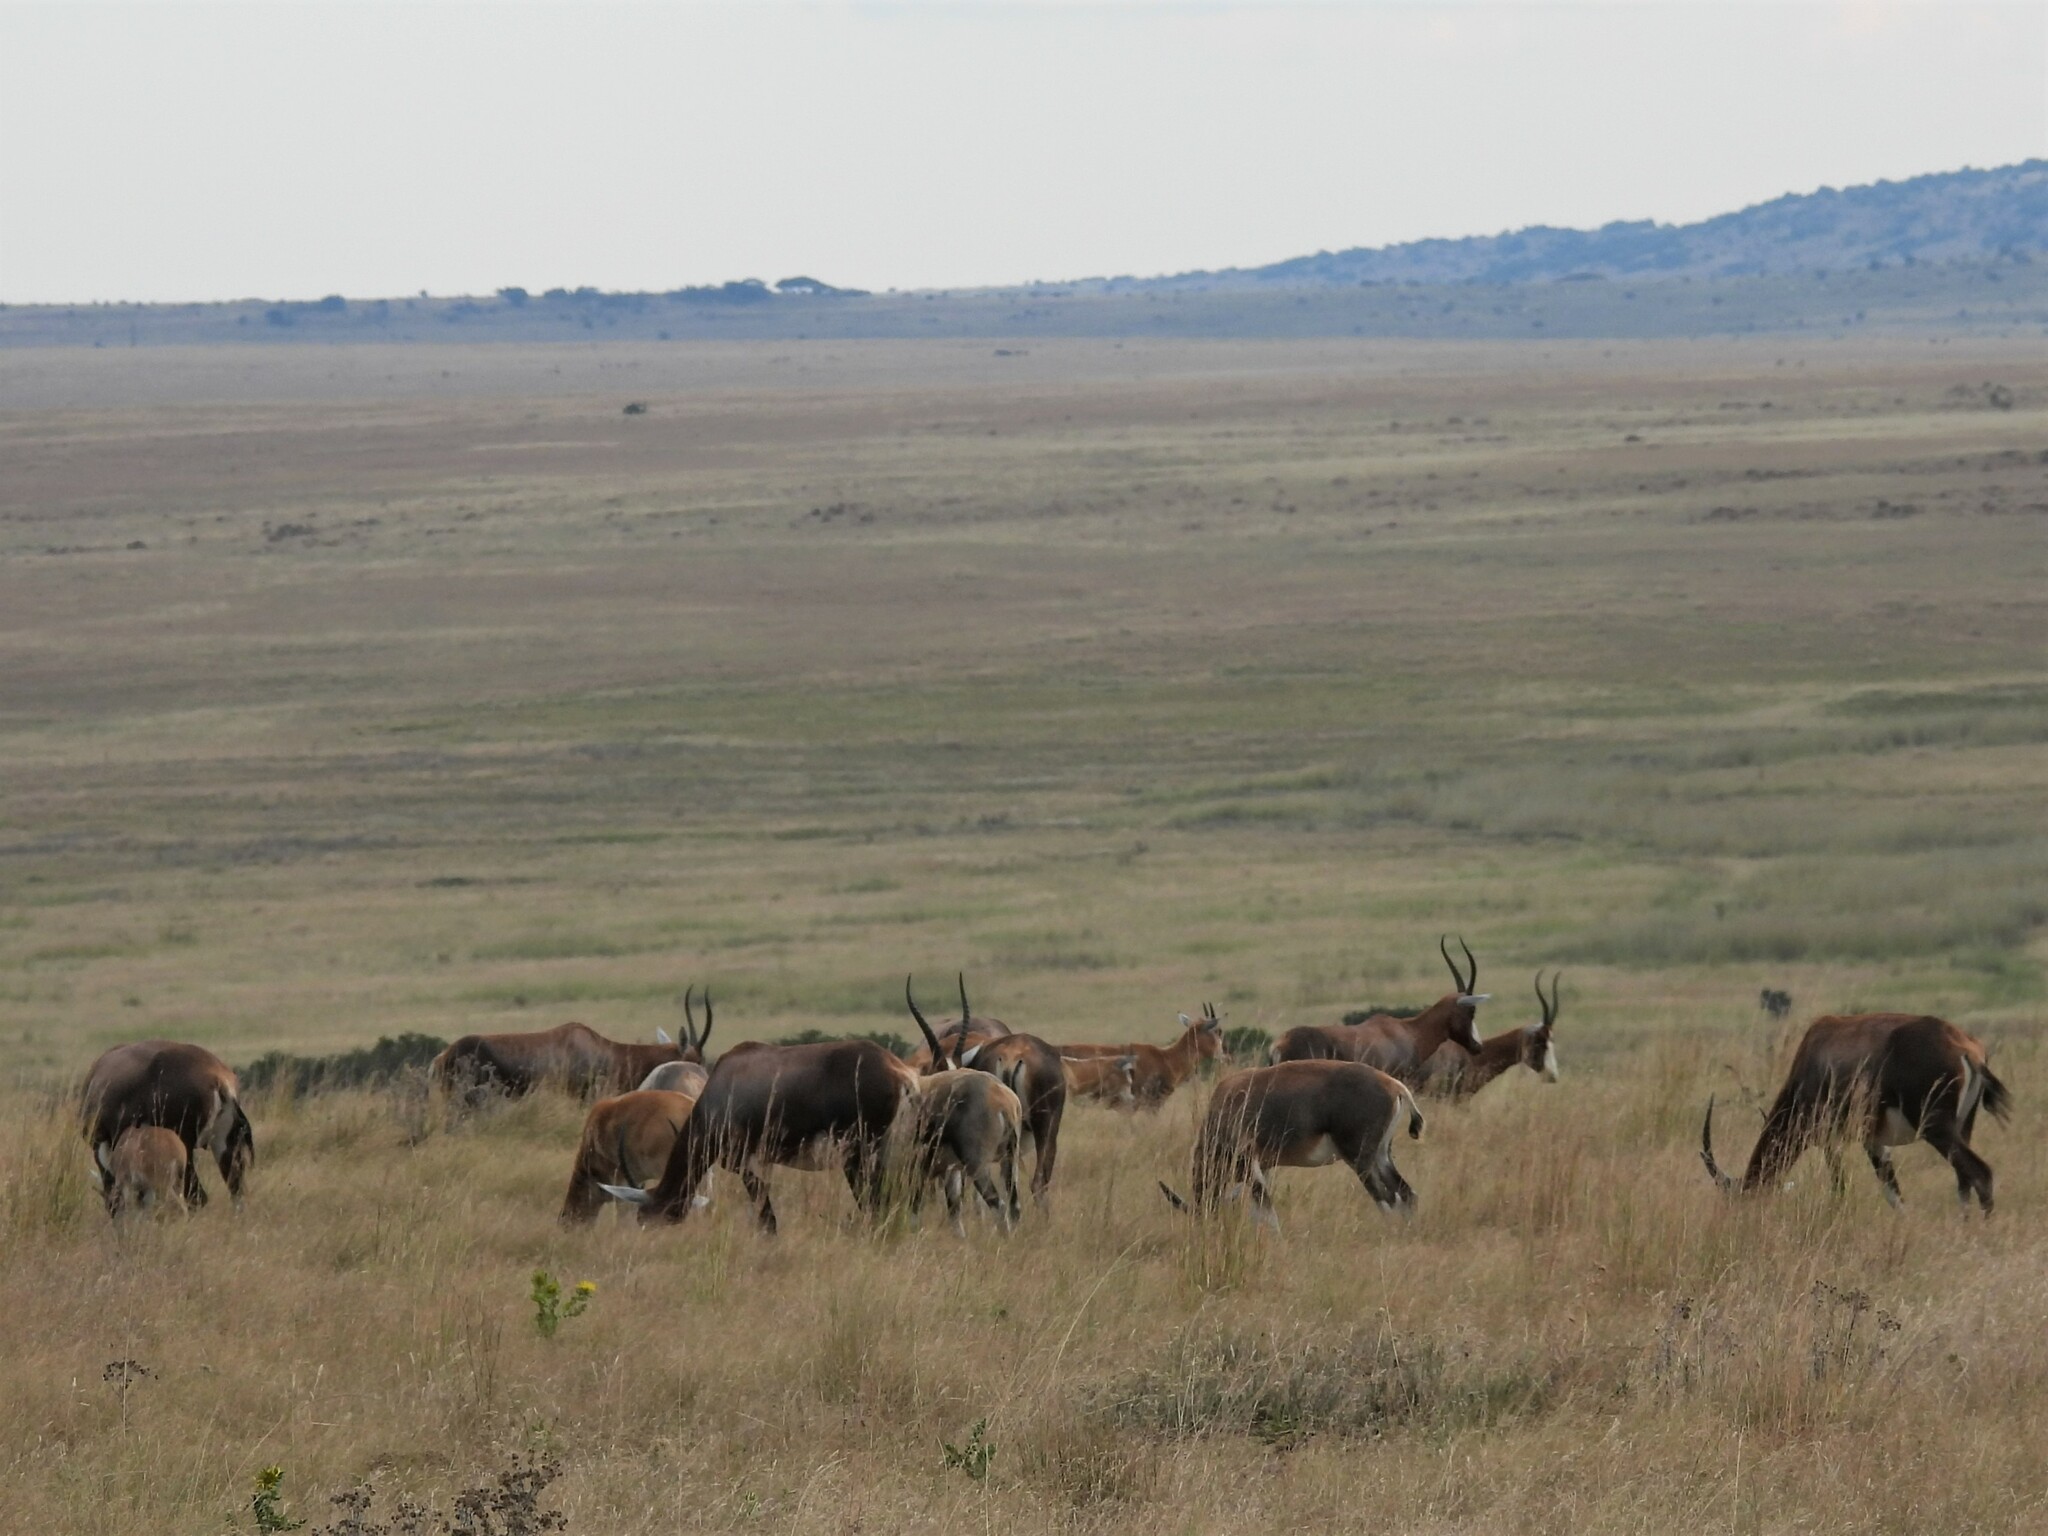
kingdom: Animalia
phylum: Chordata
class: Mammalia
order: Artiodactyla
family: Bovidae
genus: Damaliscus
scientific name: Damaliscus pygargus
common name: Bontebok
